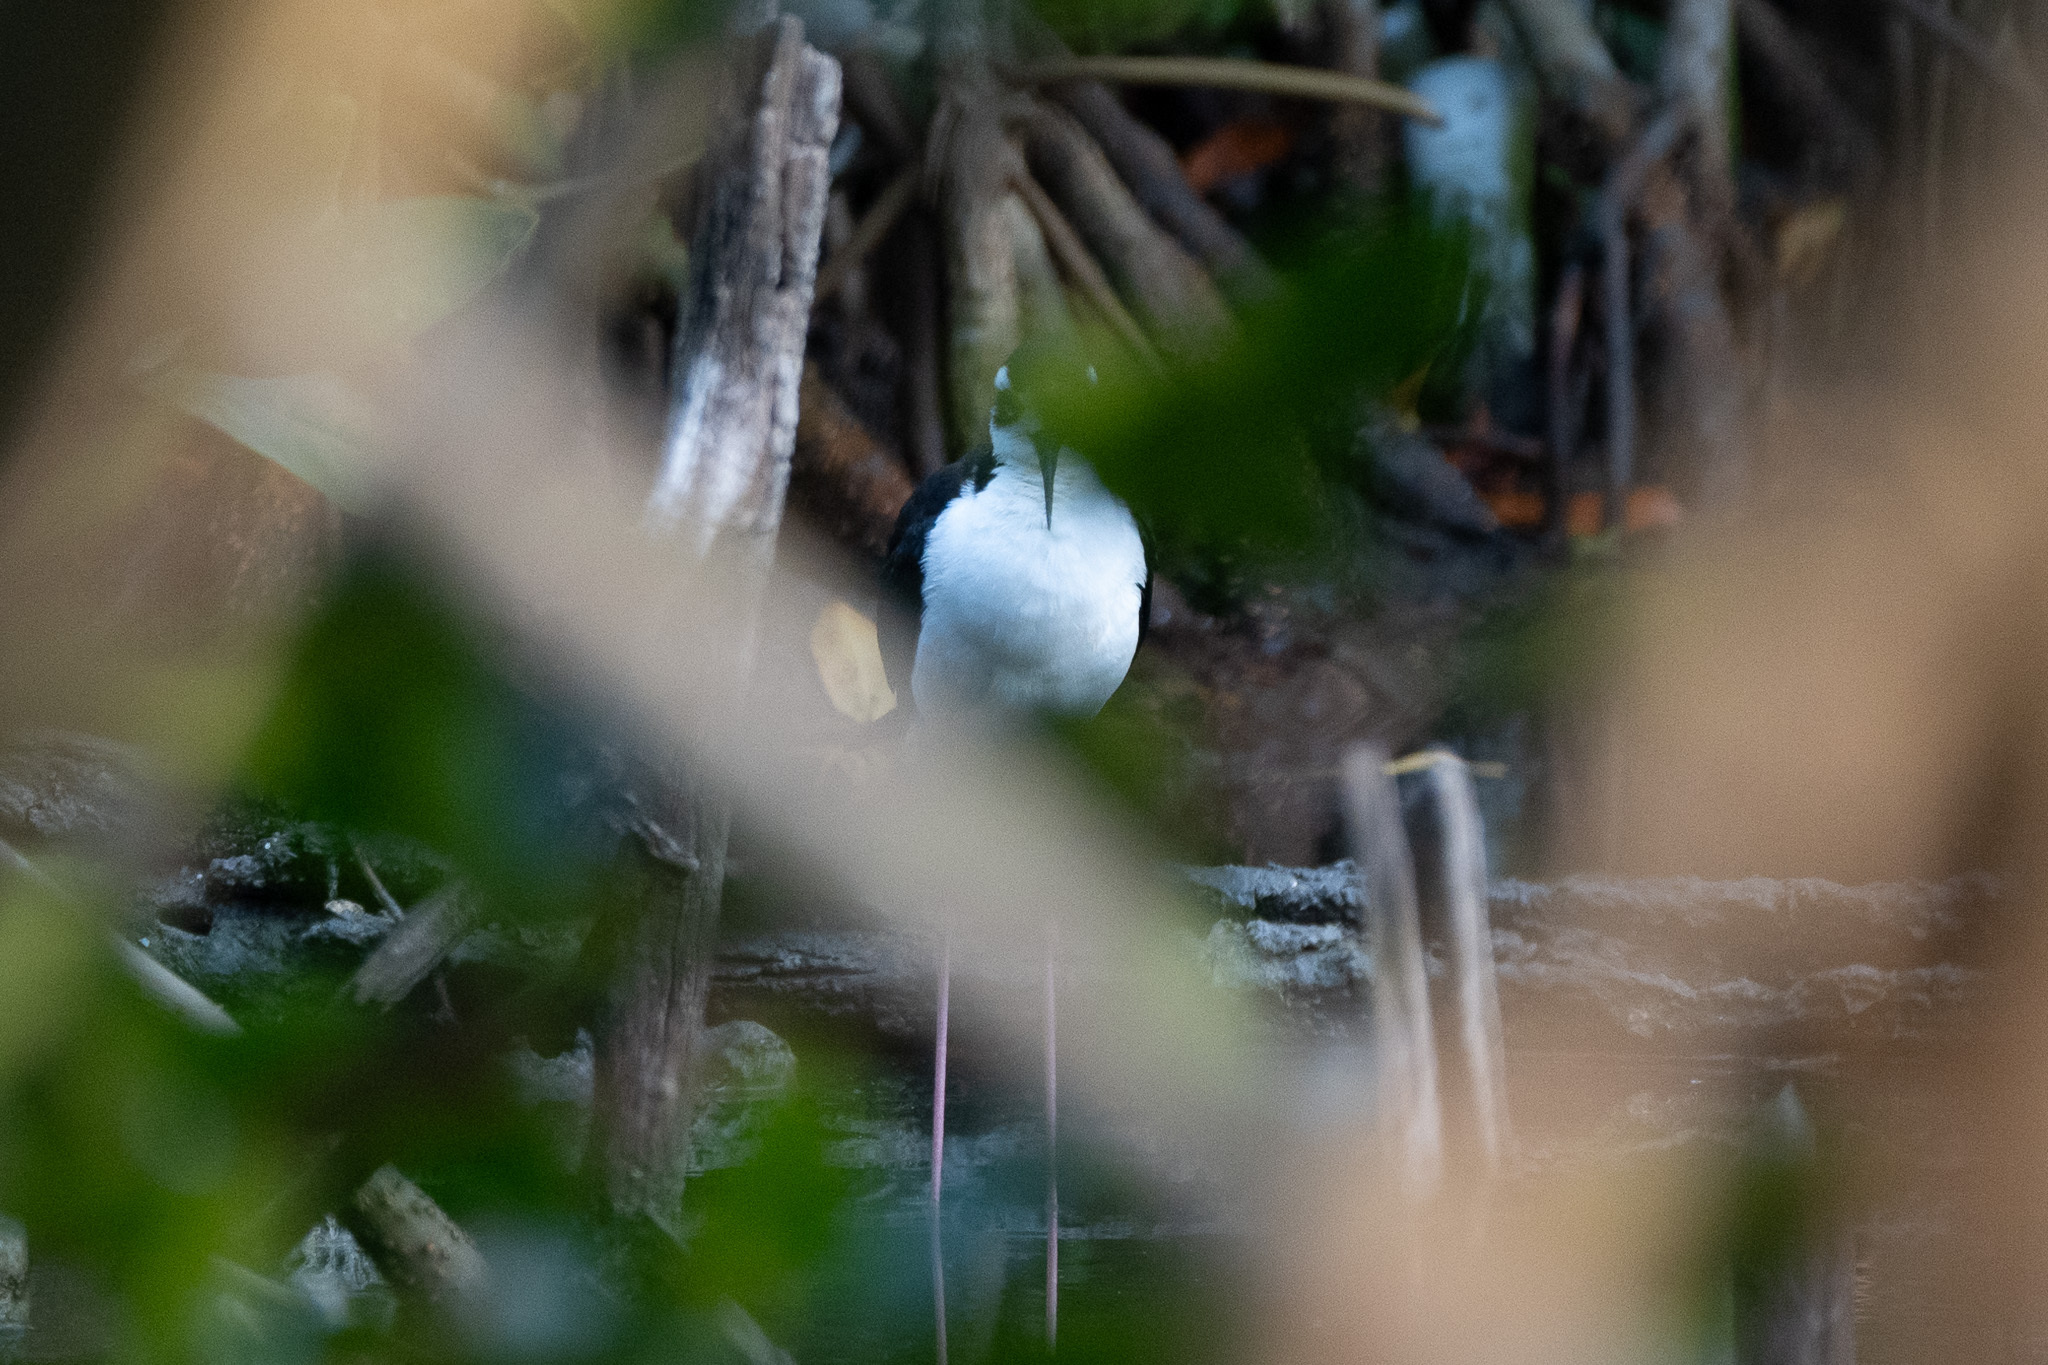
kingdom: Animalia
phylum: Chordata
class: Aves
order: Charadriiformes
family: Recurvirostridae
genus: Himantopus
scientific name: Himantopus mexicanus
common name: Black-necked stilt
